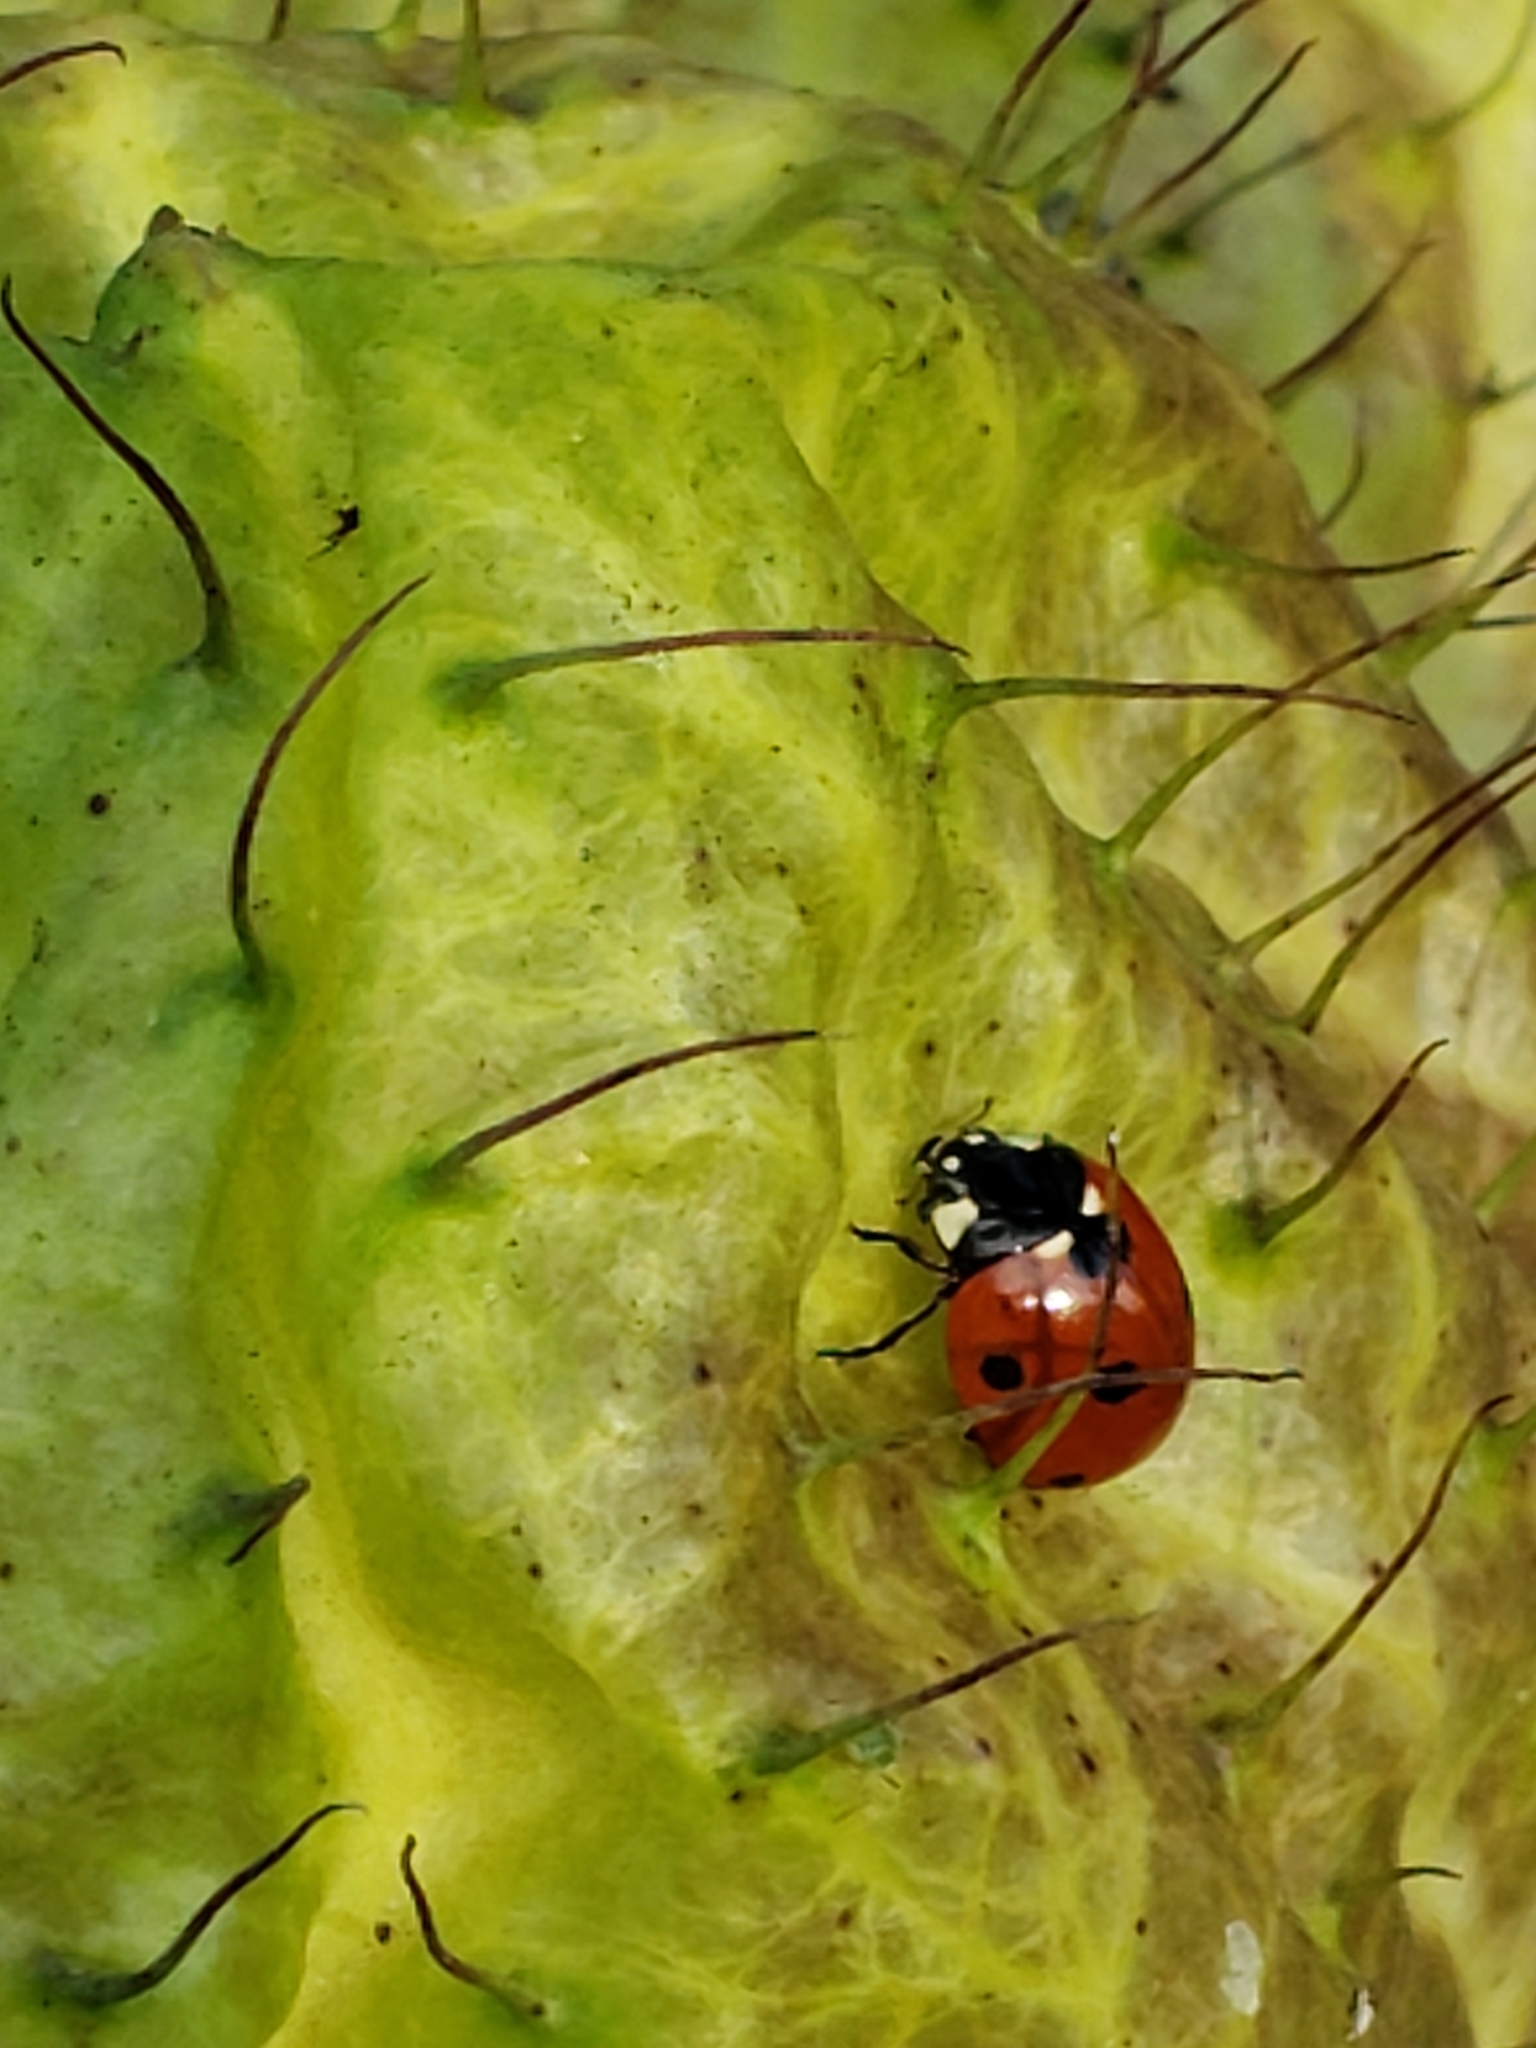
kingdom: Animalia
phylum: Arthropoda
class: Insecta
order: Coleoptera
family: Coccinellidae
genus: Coccinella
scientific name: Coccinella septempunctata
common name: Sevenspotted lady beetle
